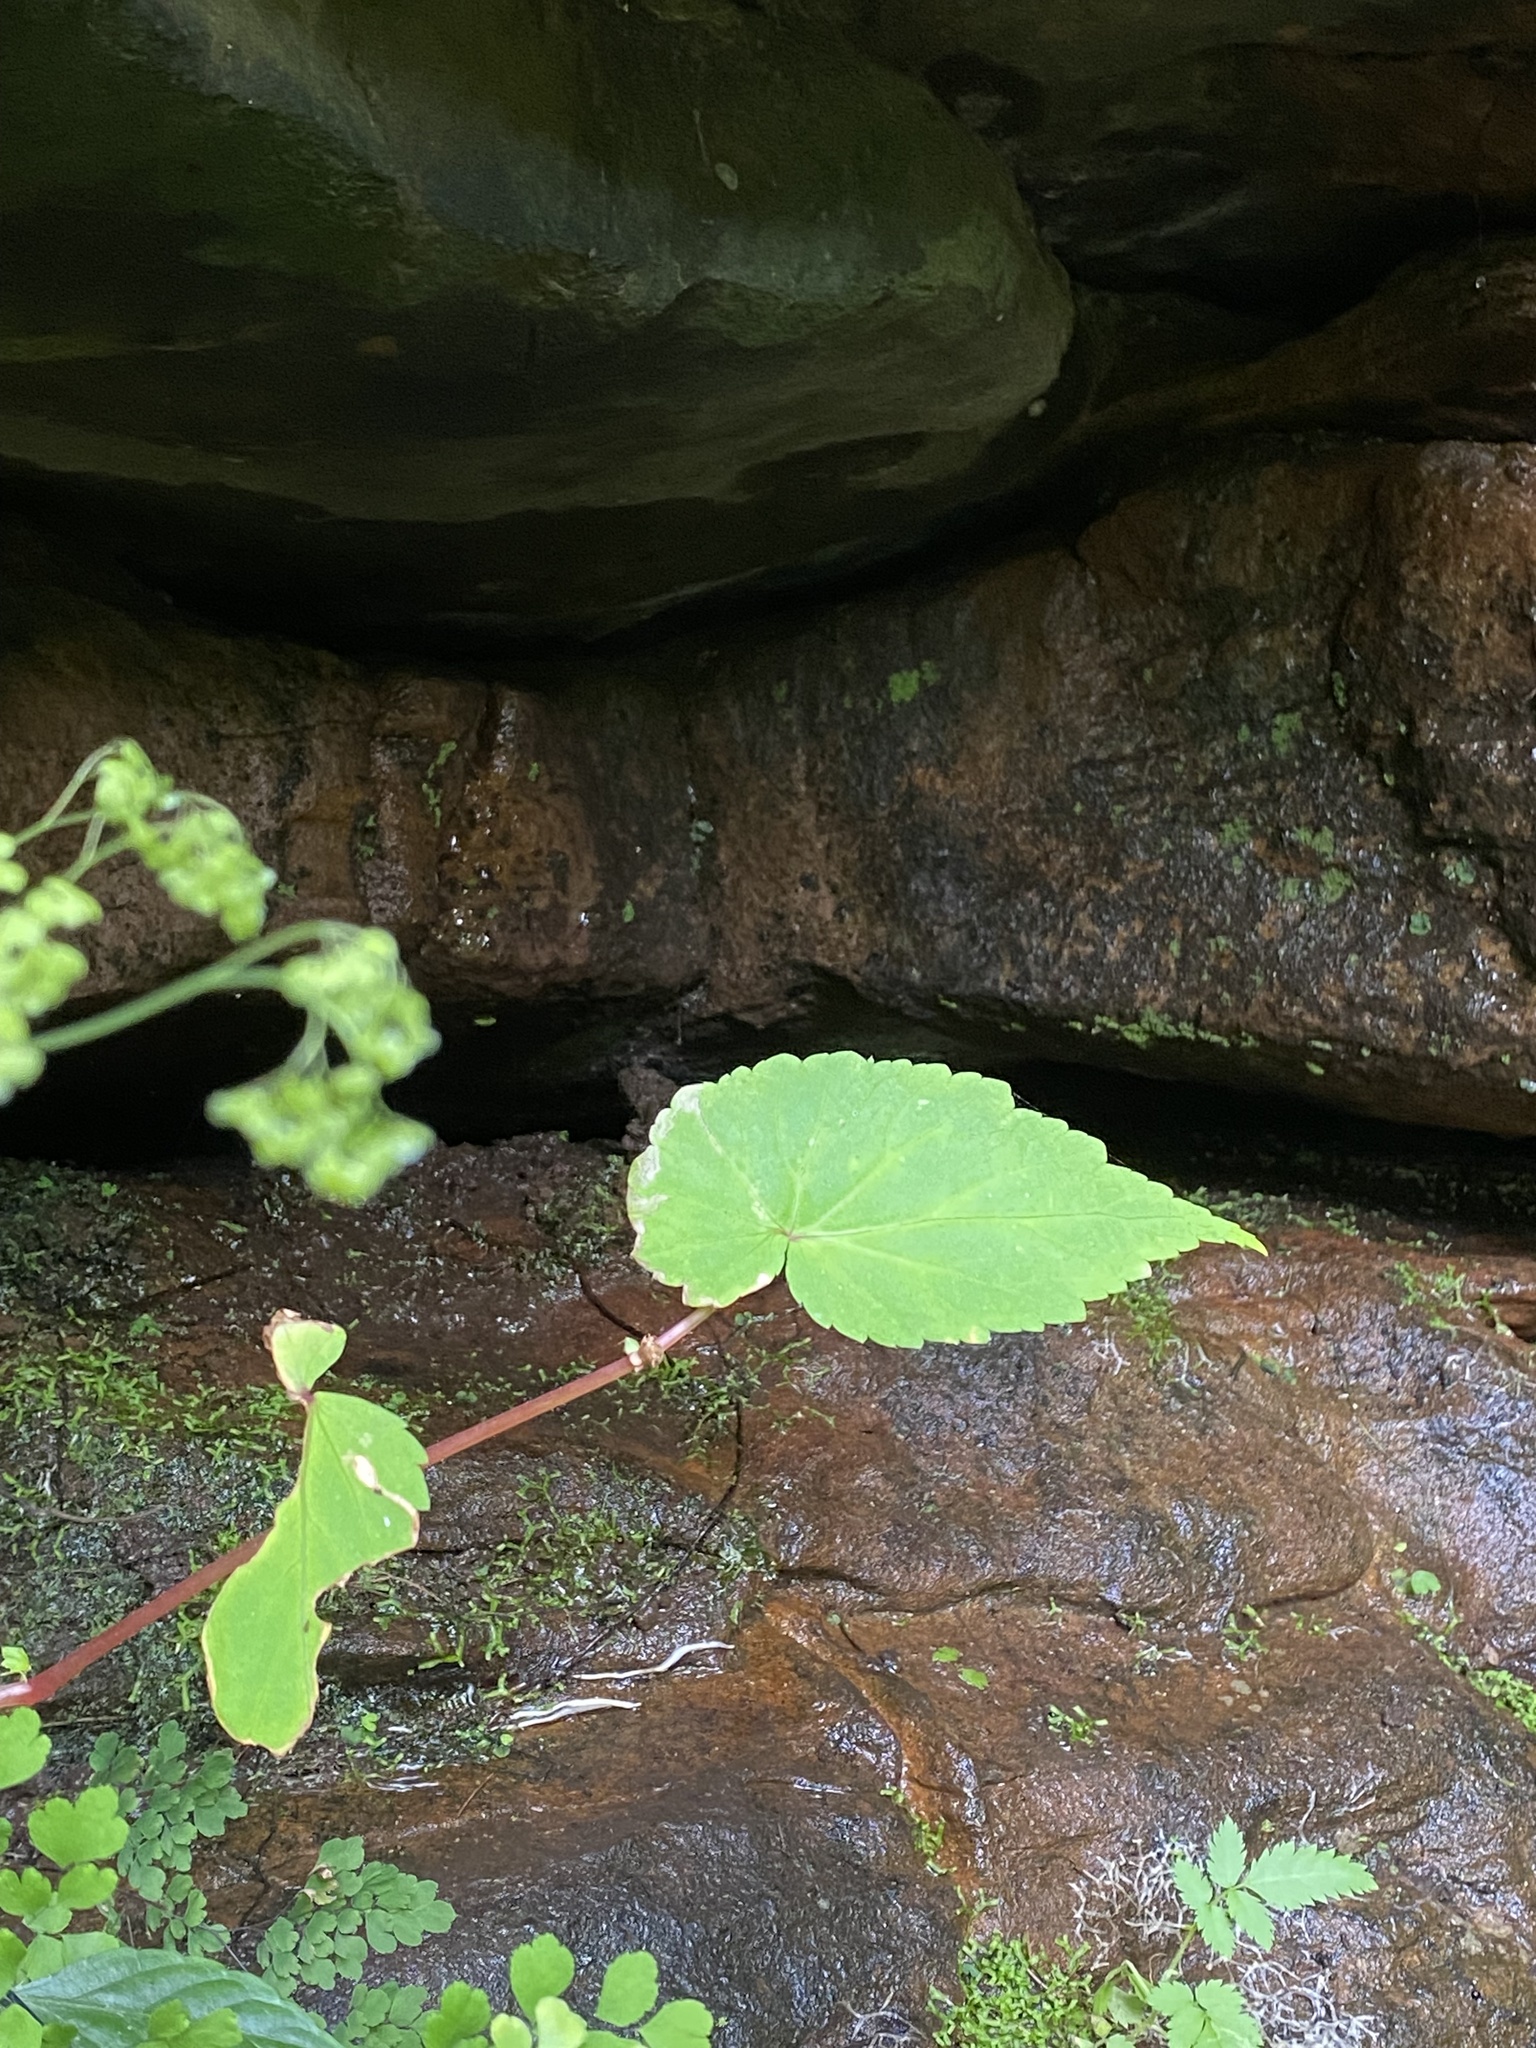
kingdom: Plantae
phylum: Tracheophyta
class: Magnoliopsida
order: Cucurbitales
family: Begoniaceae
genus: Begonia
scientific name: Begonia sutherlandii
